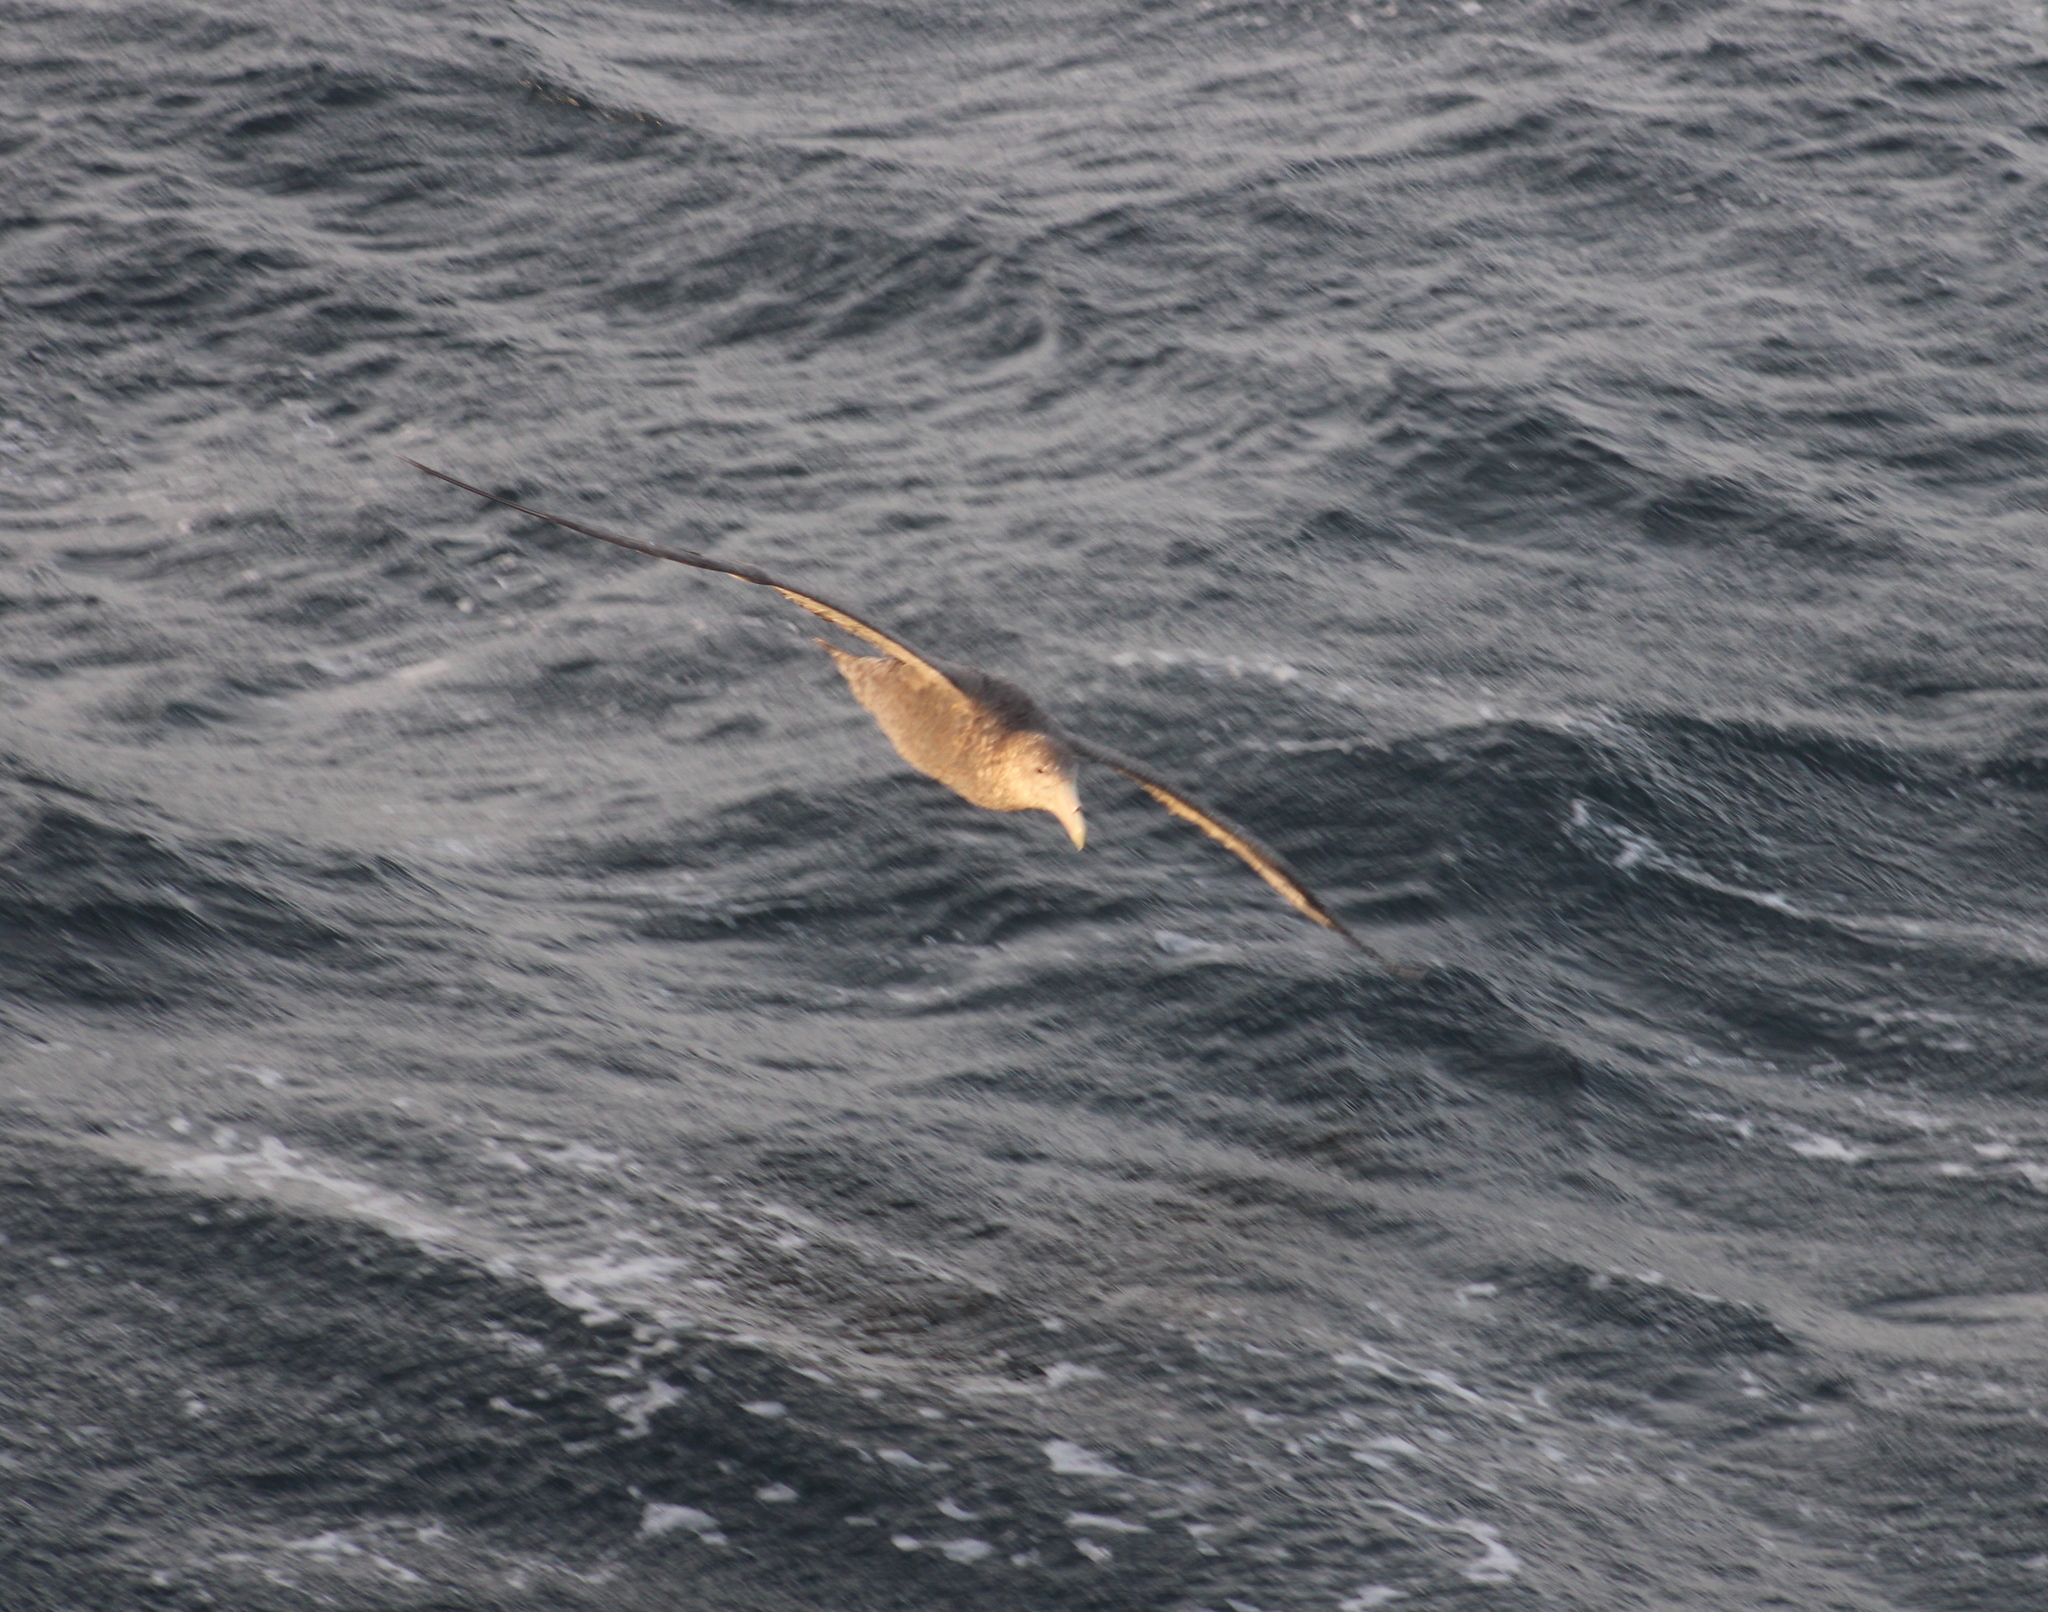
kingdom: Animalia
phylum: Chordata
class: Aves
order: Procellariiformes
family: Procellariidae
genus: Macronectes
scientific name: Macronectes giganteus
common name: Southern giant petrel
